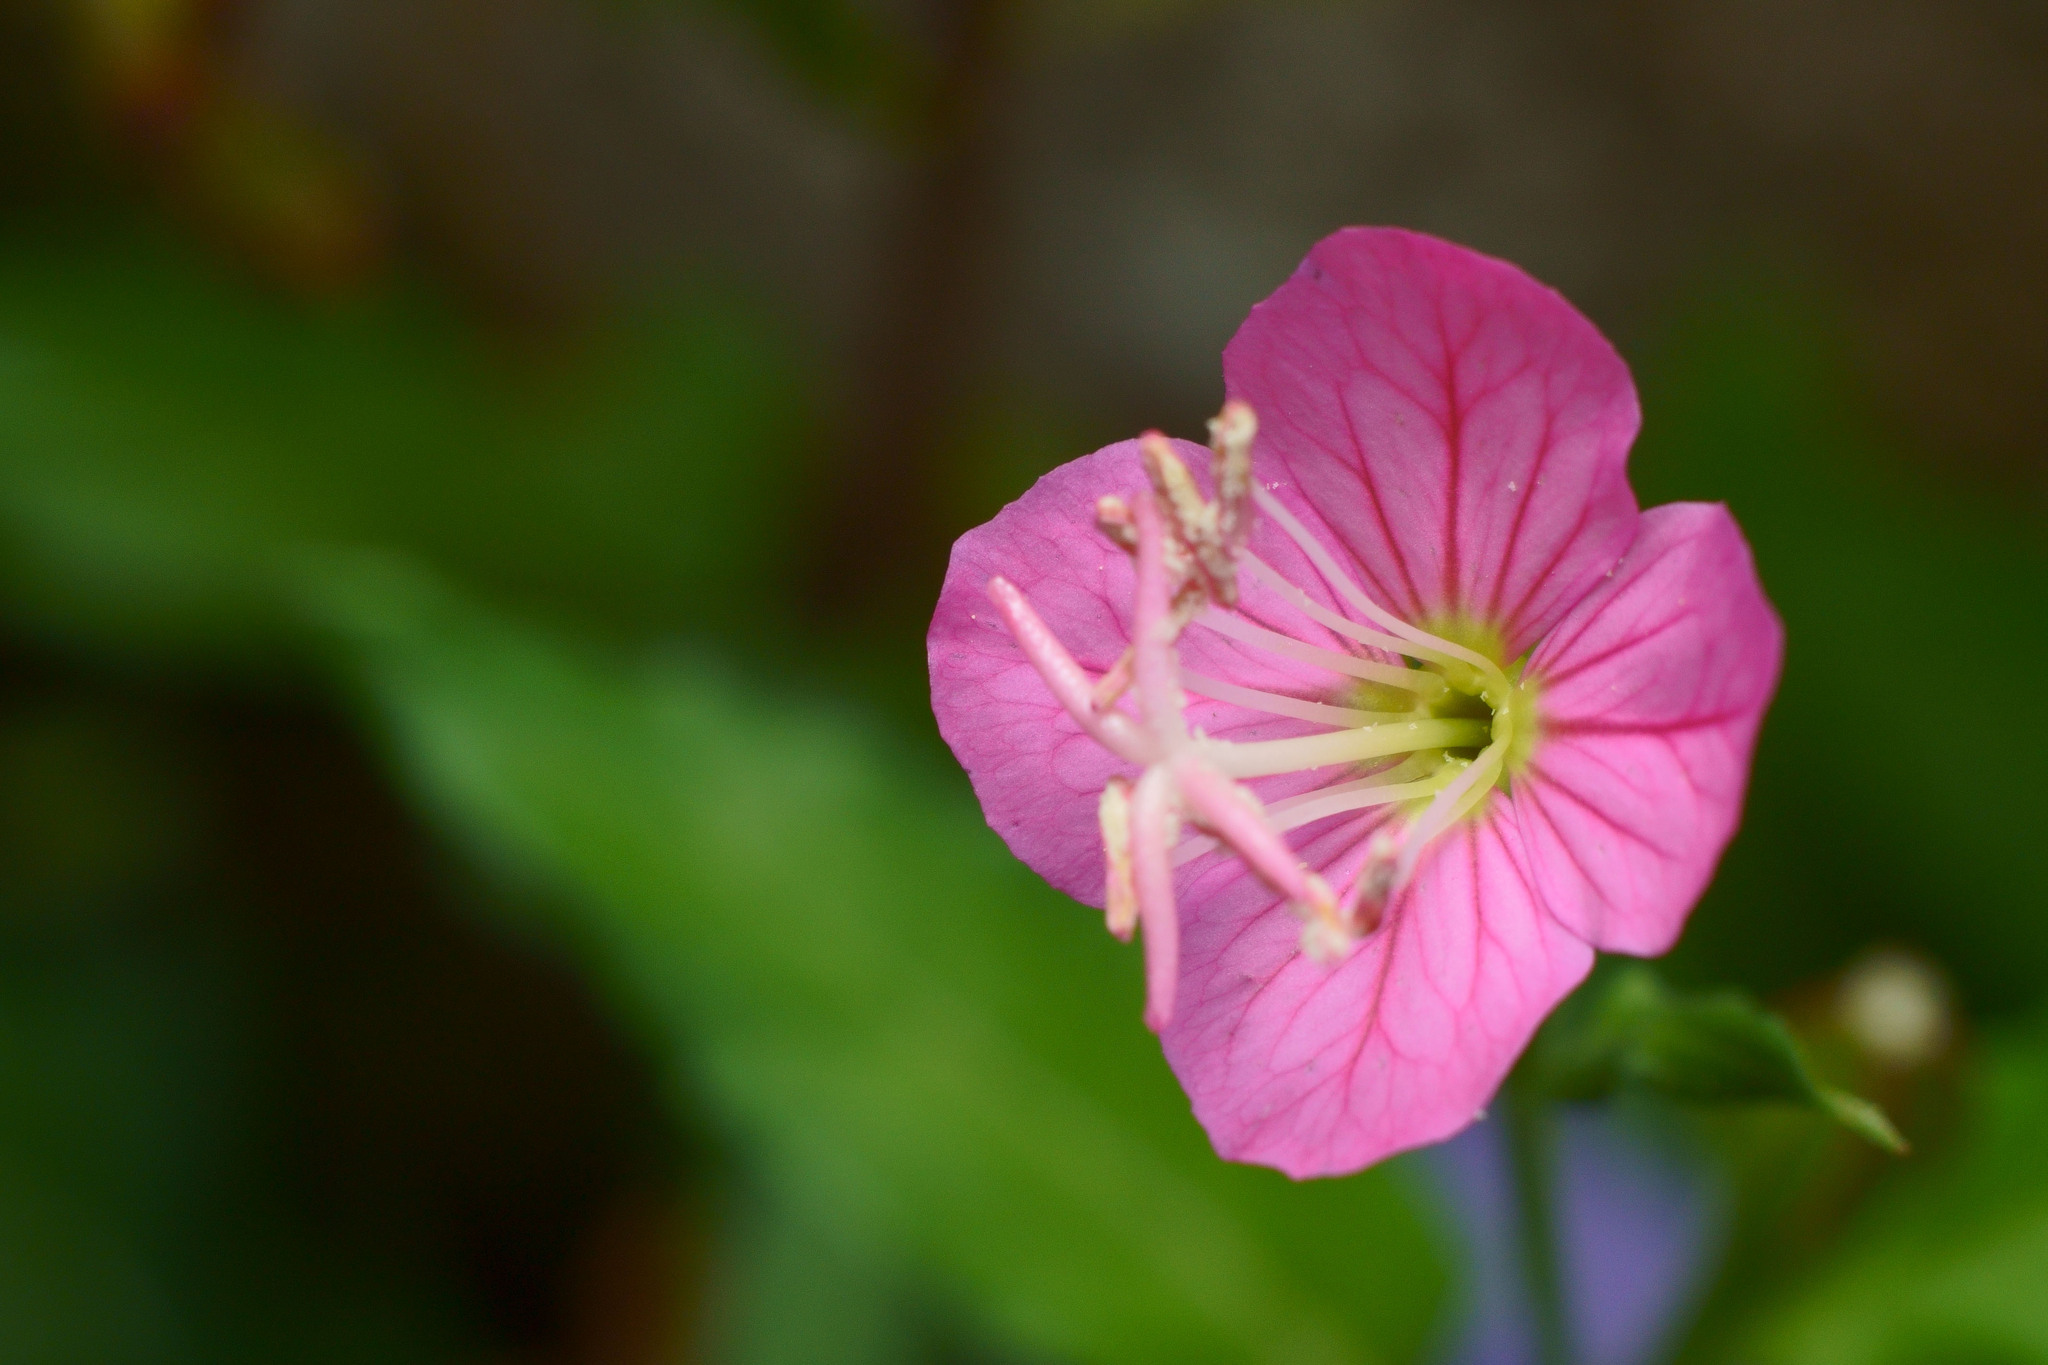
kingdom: Plantae
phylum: Tracheophyta
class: Magnoliopsida
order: Myrtales
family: Onagraceae
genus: Oenothera
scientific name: Oenothera rosea
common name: Rosy evening-primrose
